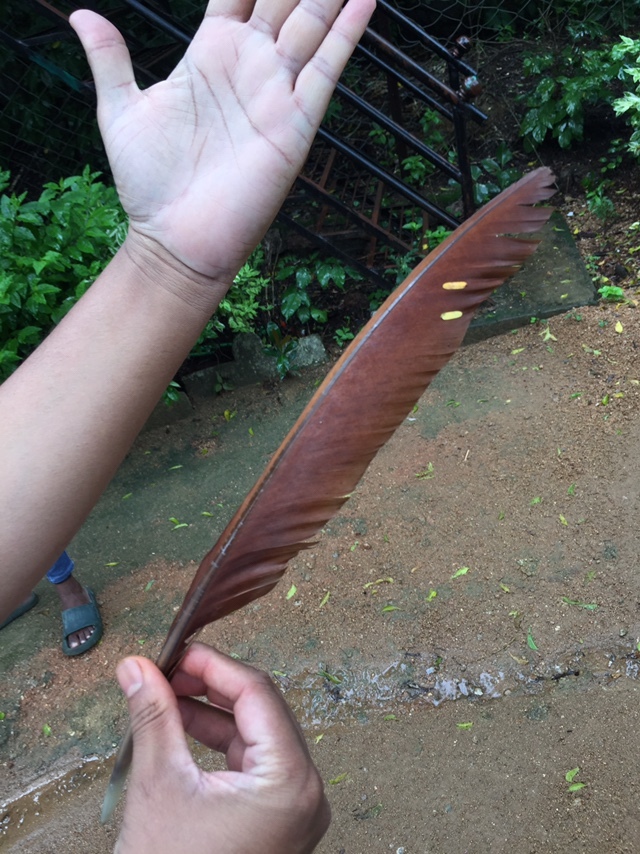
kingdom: Animalia
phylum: Chordata
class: Aves
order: Galliformes
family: Phasianidae
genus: Pavo
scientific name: Pavo cristatus
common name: Indian peafowl
